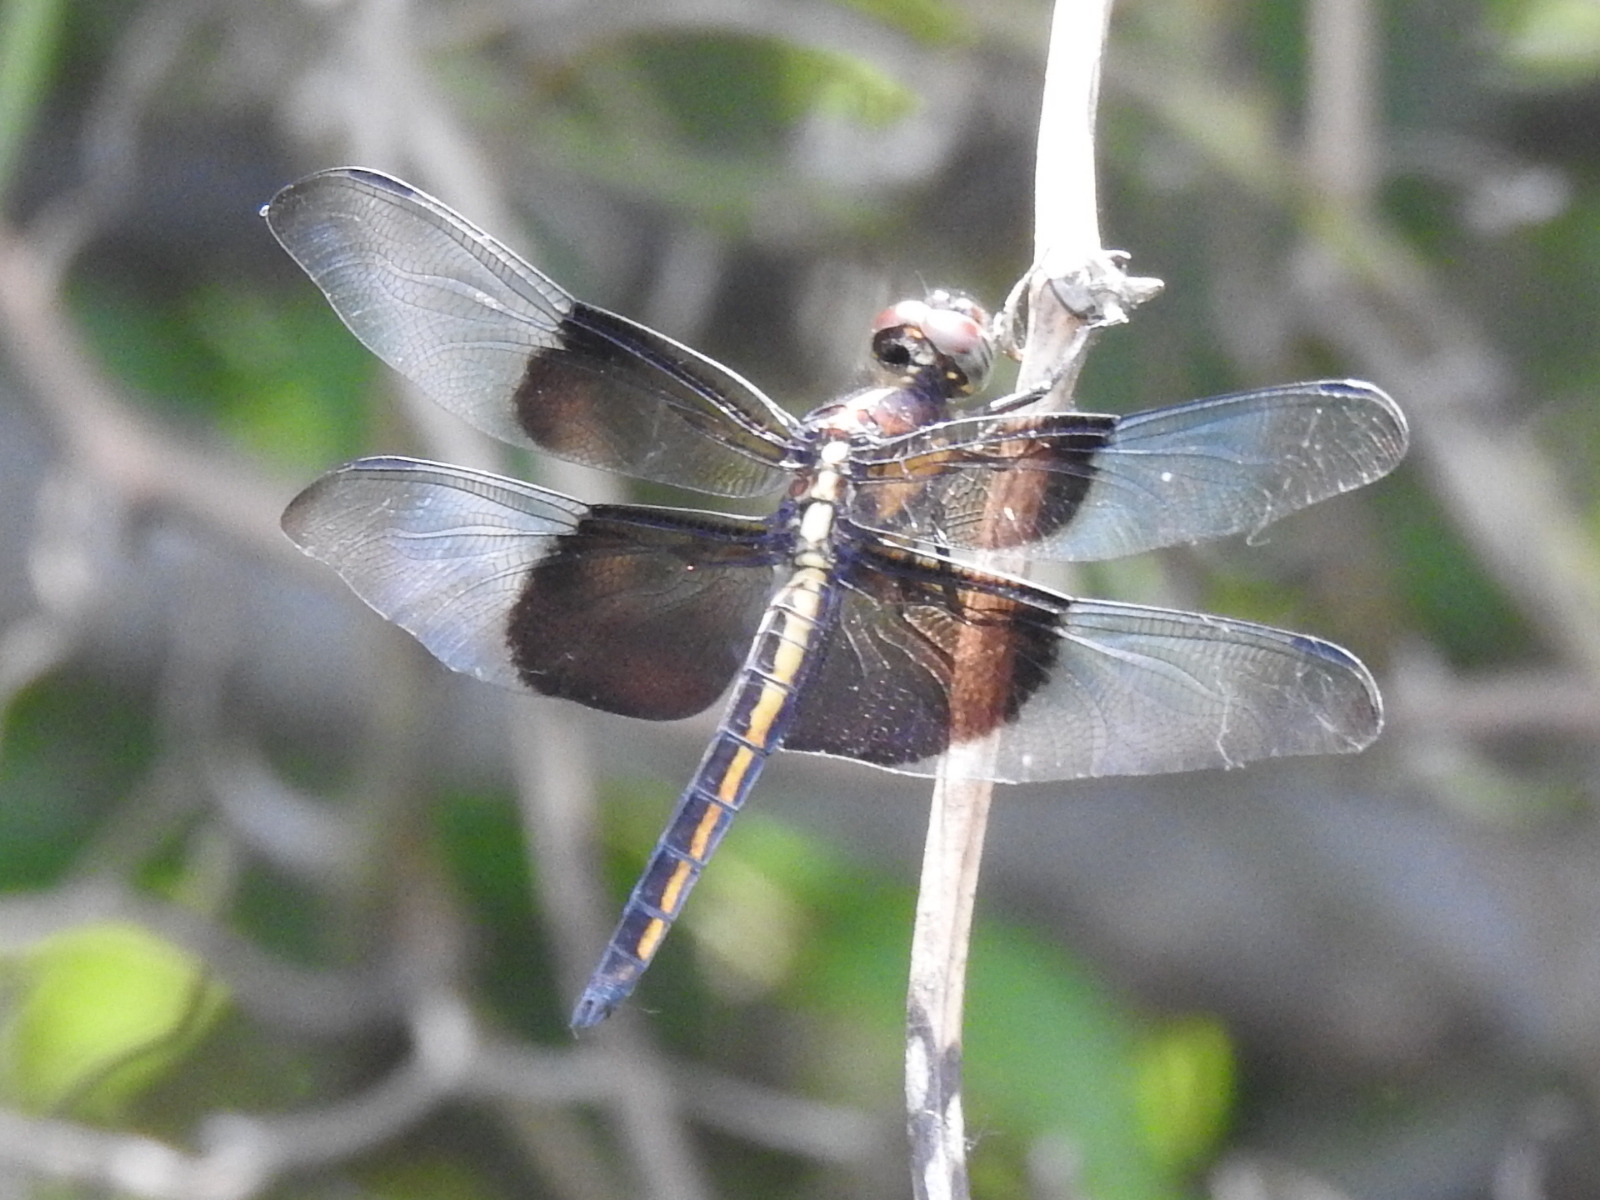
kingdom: Animalia
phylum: Arthropoda
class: Insecta
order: Odonata
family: Libellulidae
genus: Libellula
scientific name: Libellula luctuosa
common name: Widow skimmer
